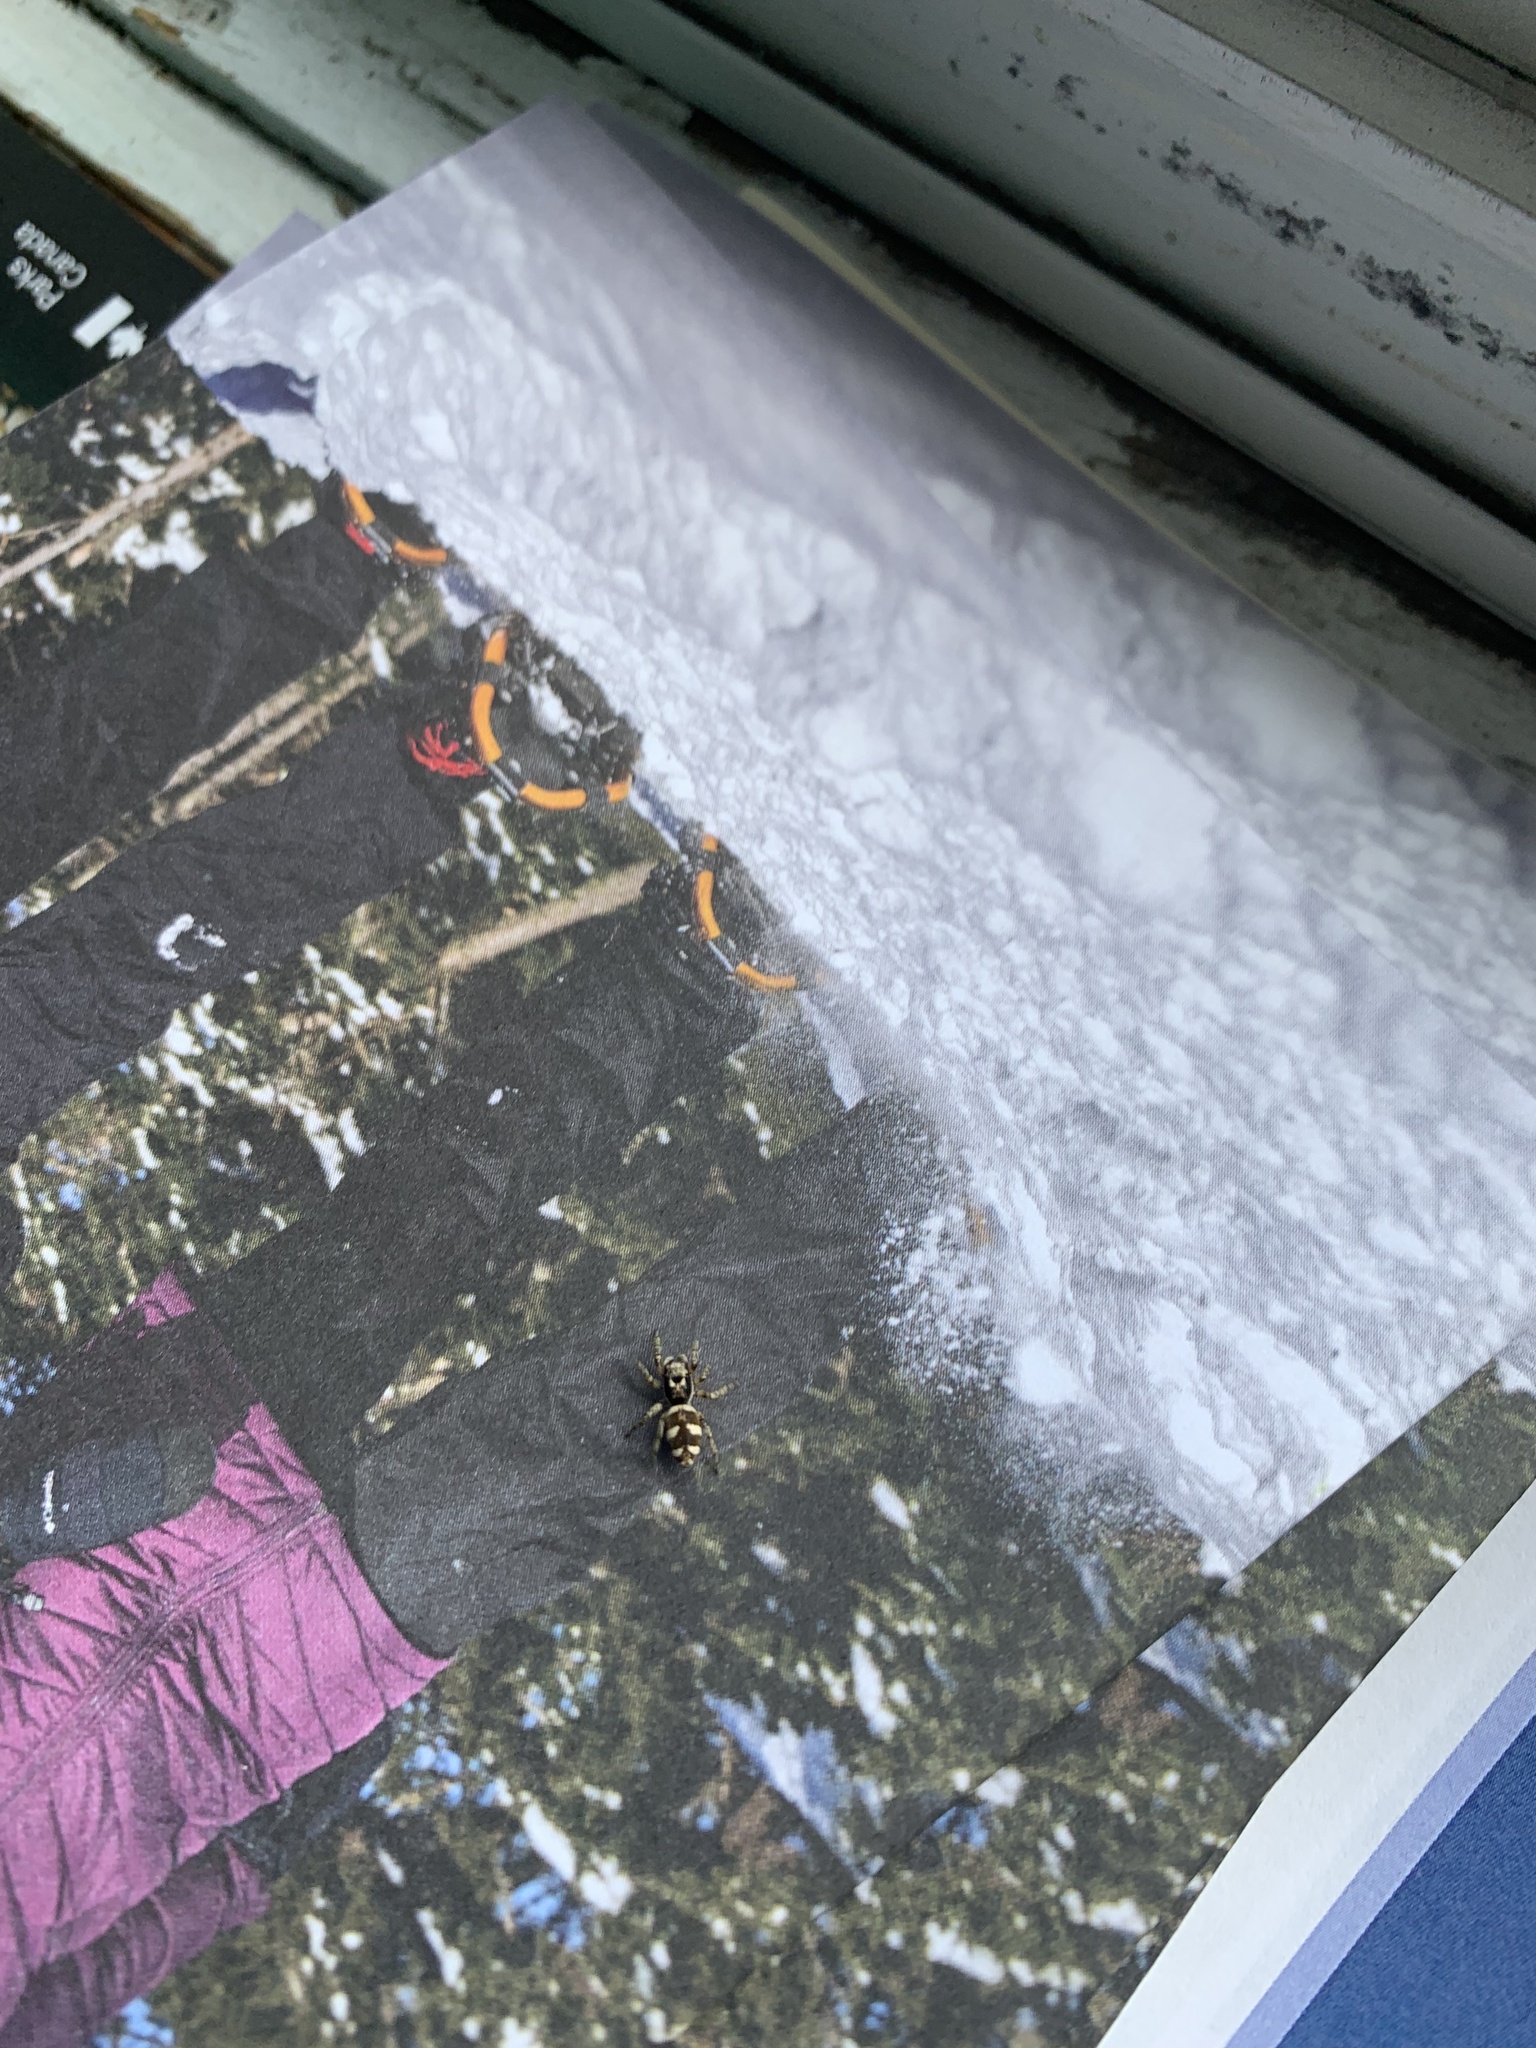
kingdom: Animalia
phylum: Arthropoda
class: Arachnida
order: Araneae
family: Salticidae
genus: Salticus
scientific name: Salticus scenicus
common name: Zebra jumper
